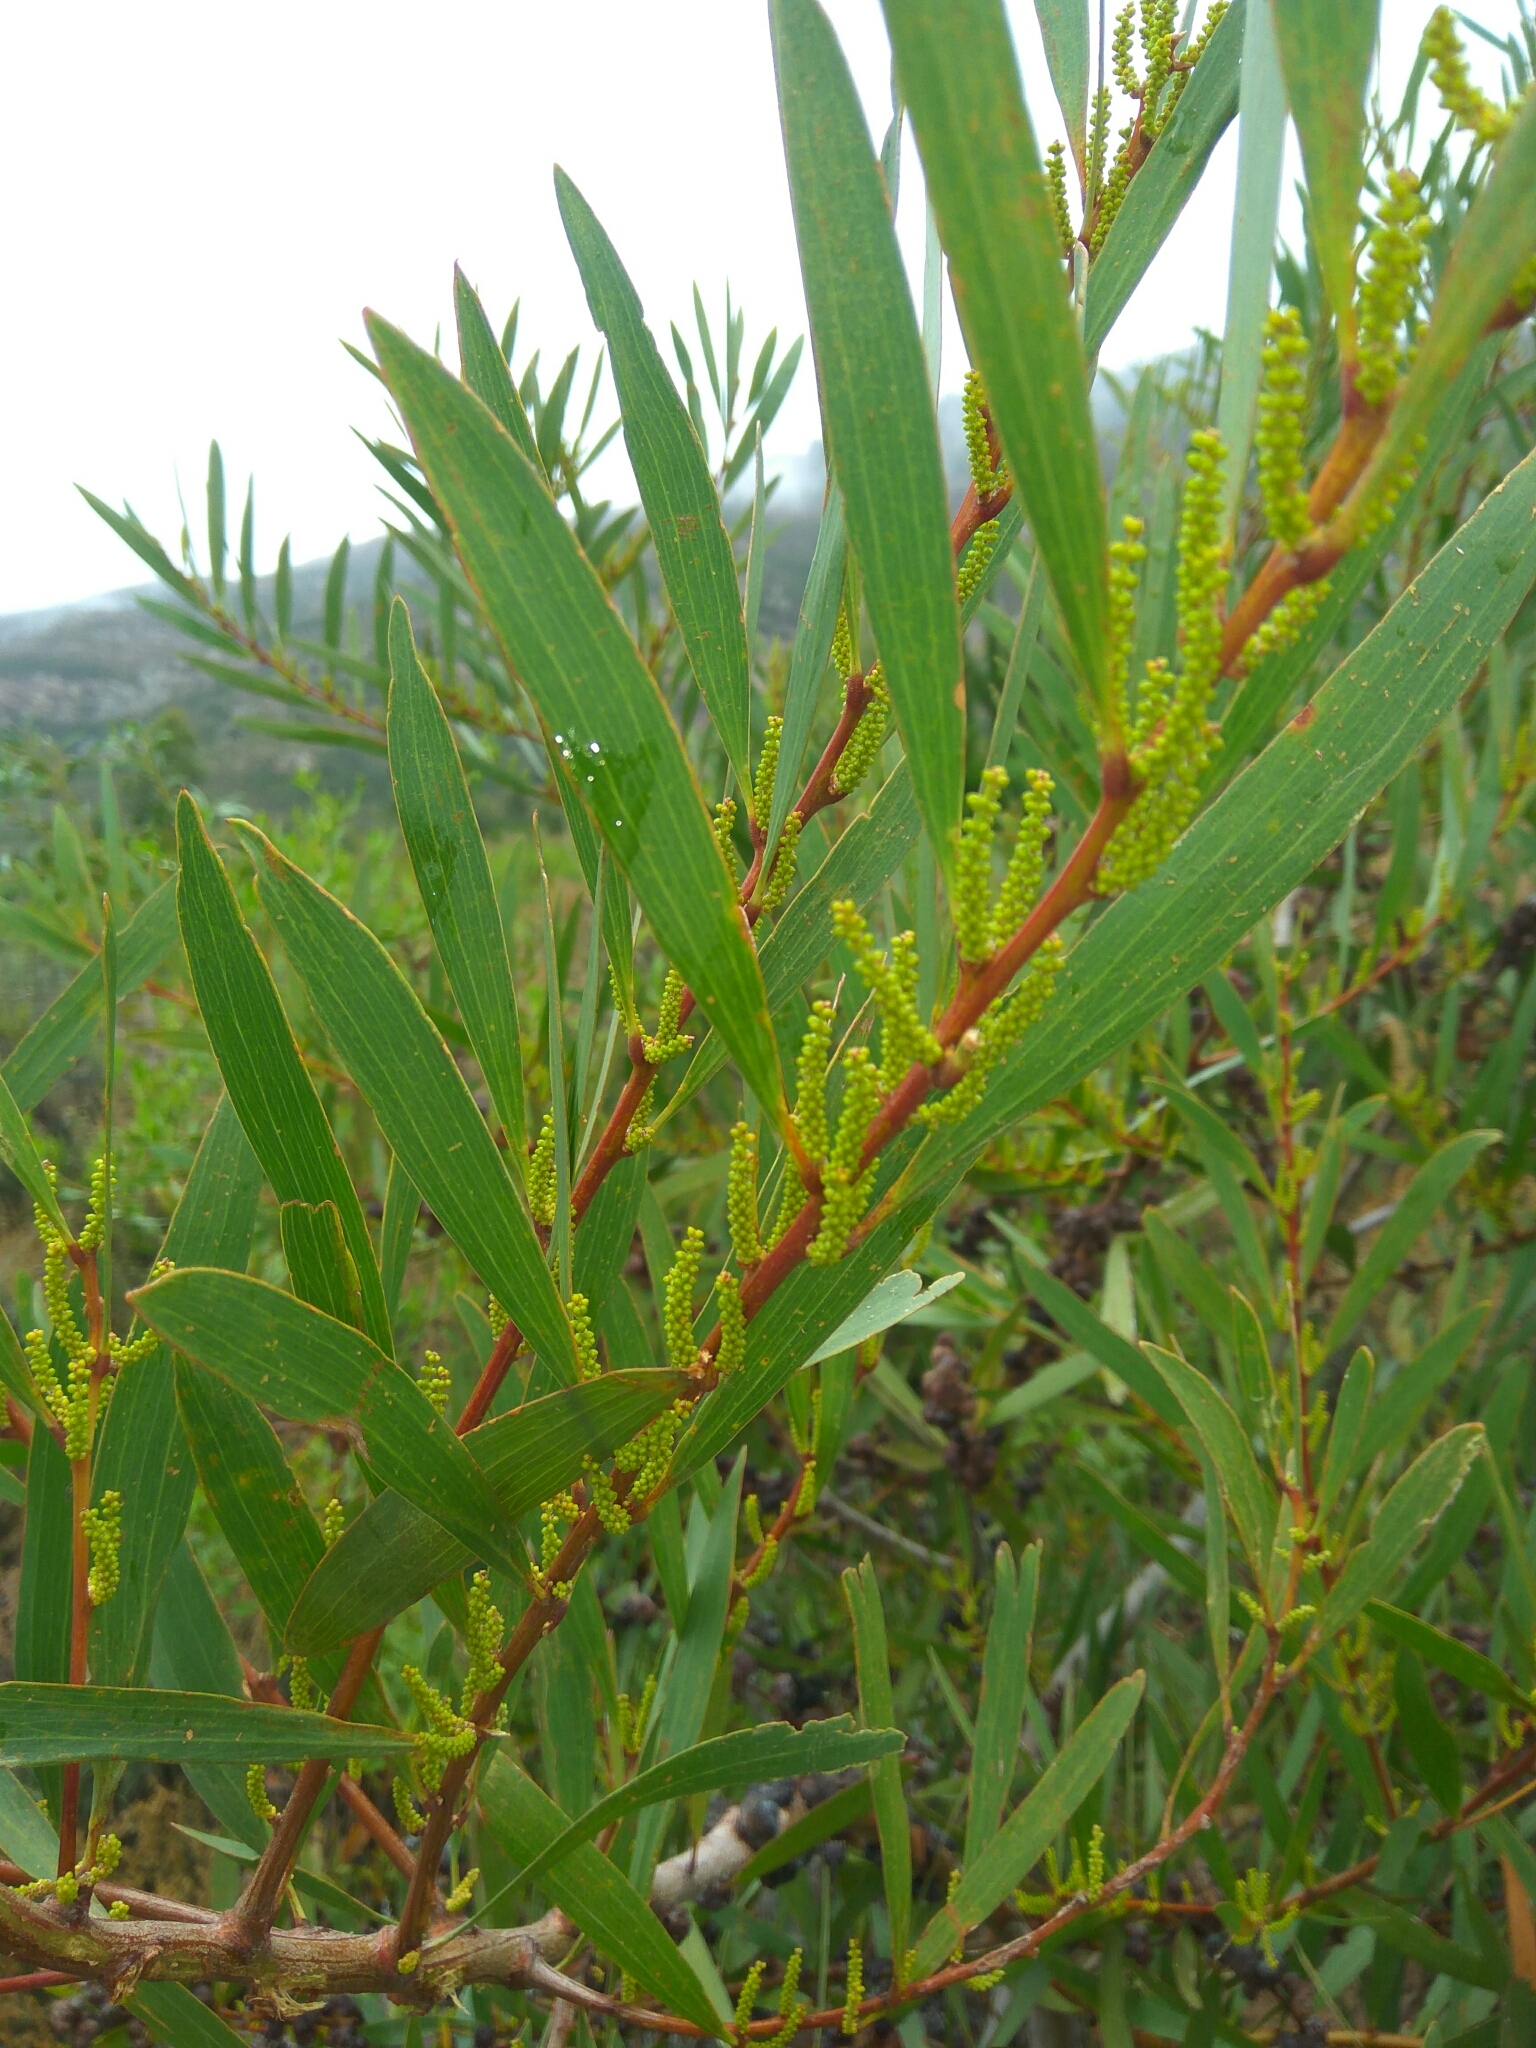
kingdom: Plantae
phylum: Tracheophyta
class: Magnoliopsida
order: Fabales
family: Fabaceae
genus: Acacia
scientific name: Acacia longifolia
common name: Sydney golden wattle
